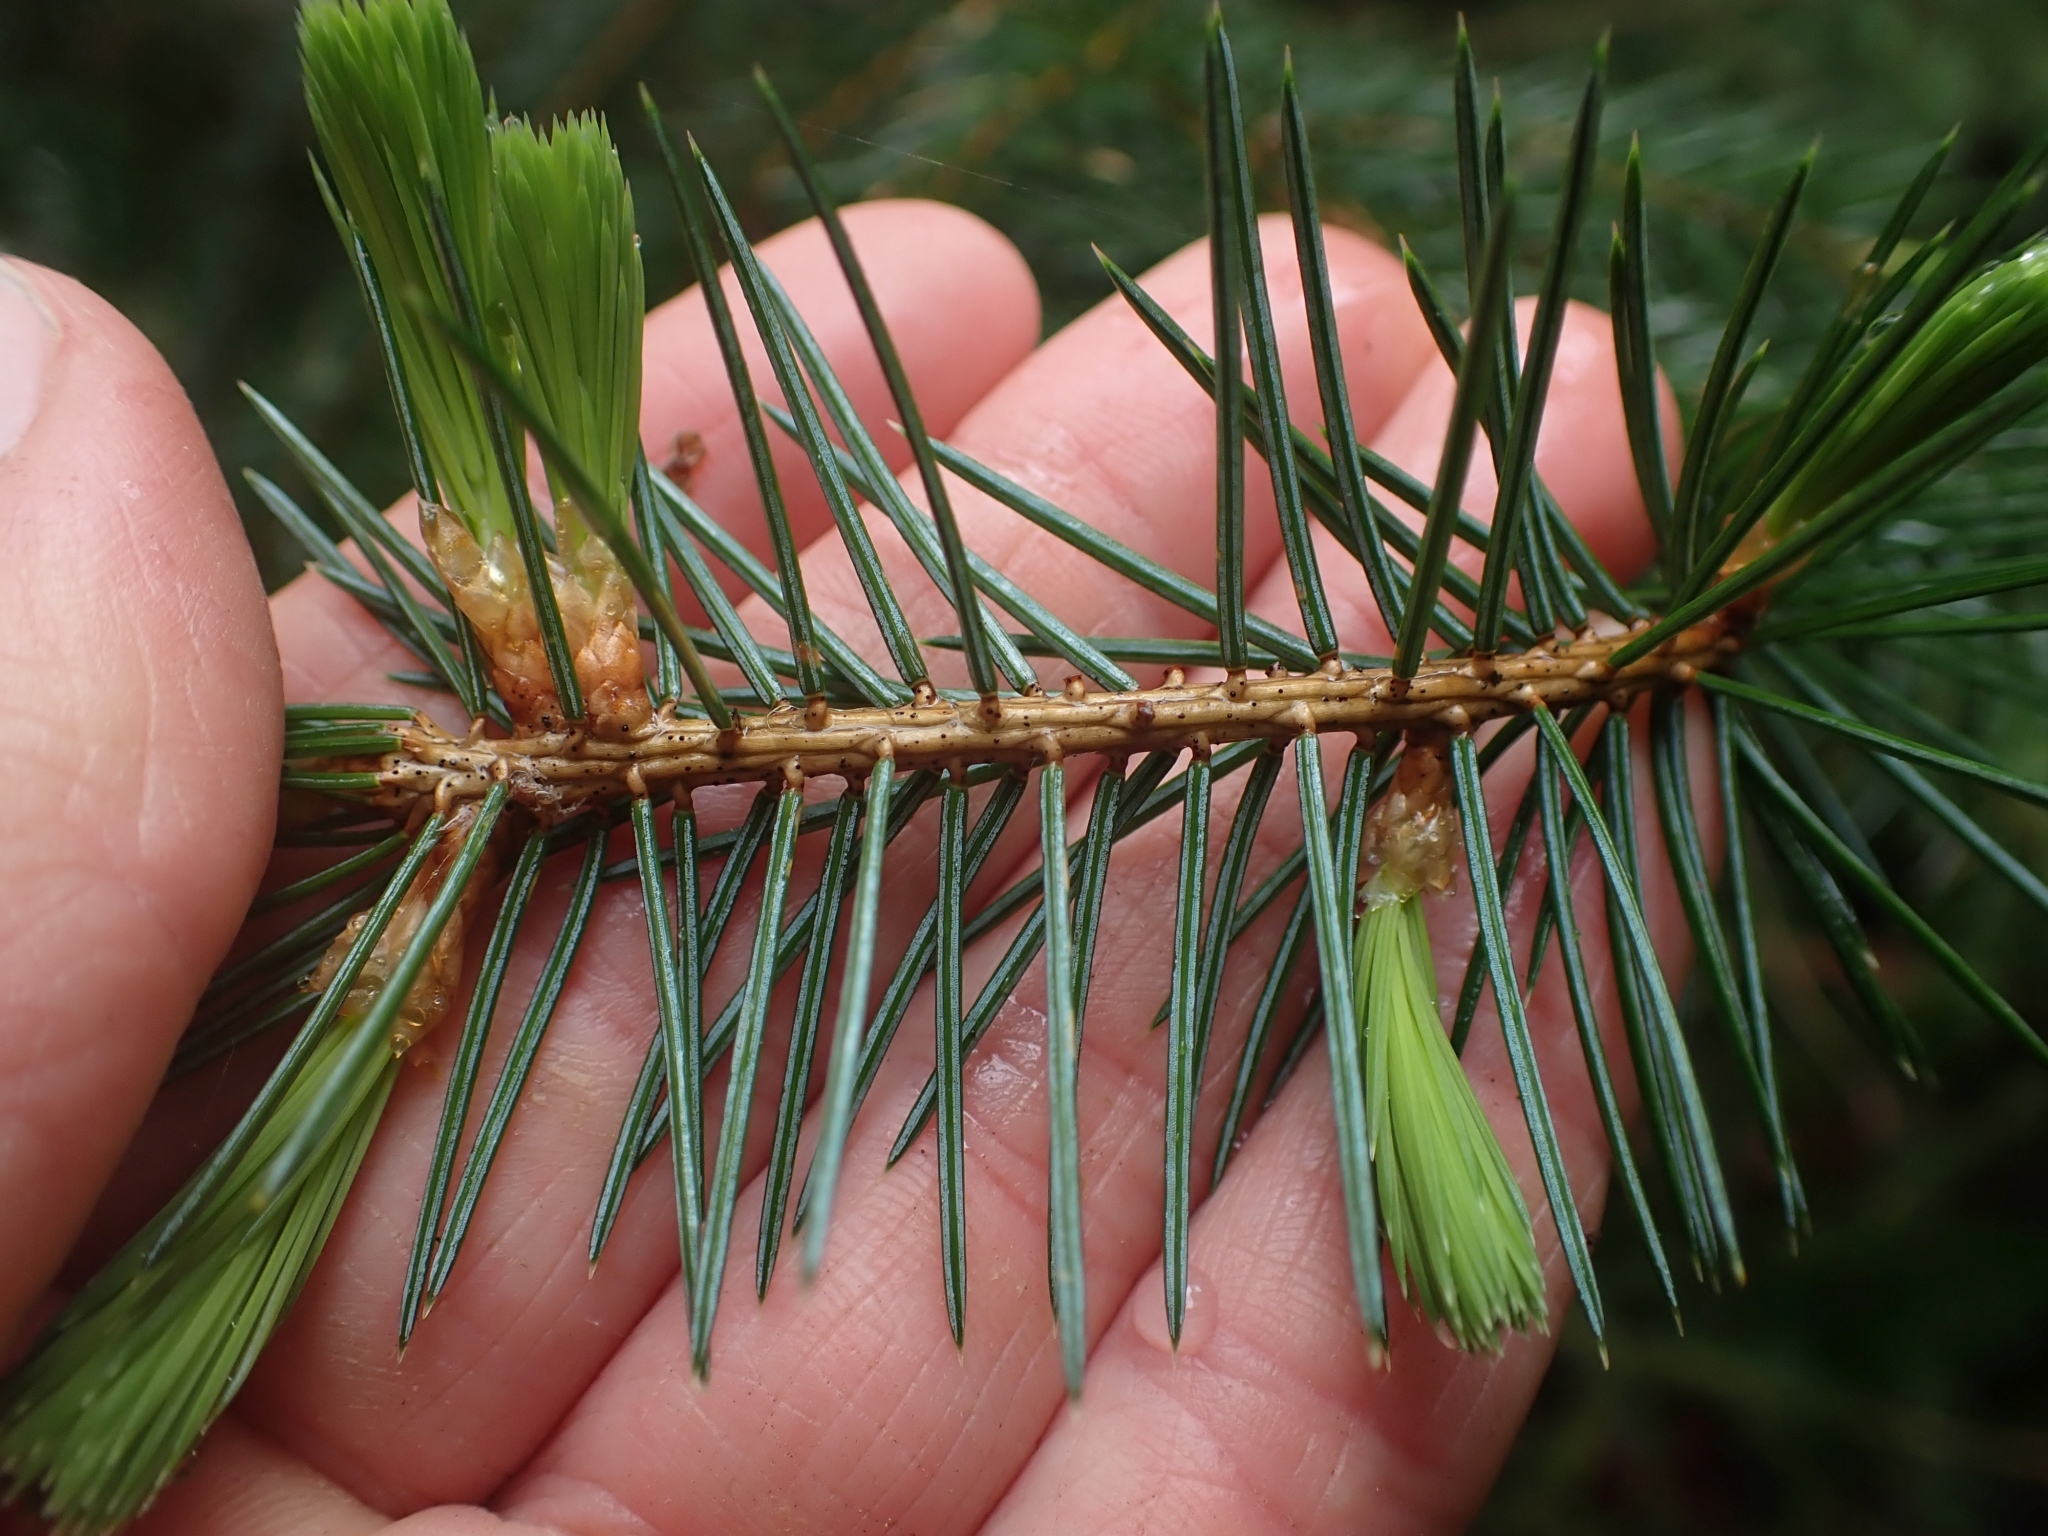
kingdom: Plantae
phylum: Tracheophyta
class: Pinopsida
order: Pinales
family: Pinaceae
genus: Picea
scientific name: Picea sitchensis
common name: Sitka spruce
